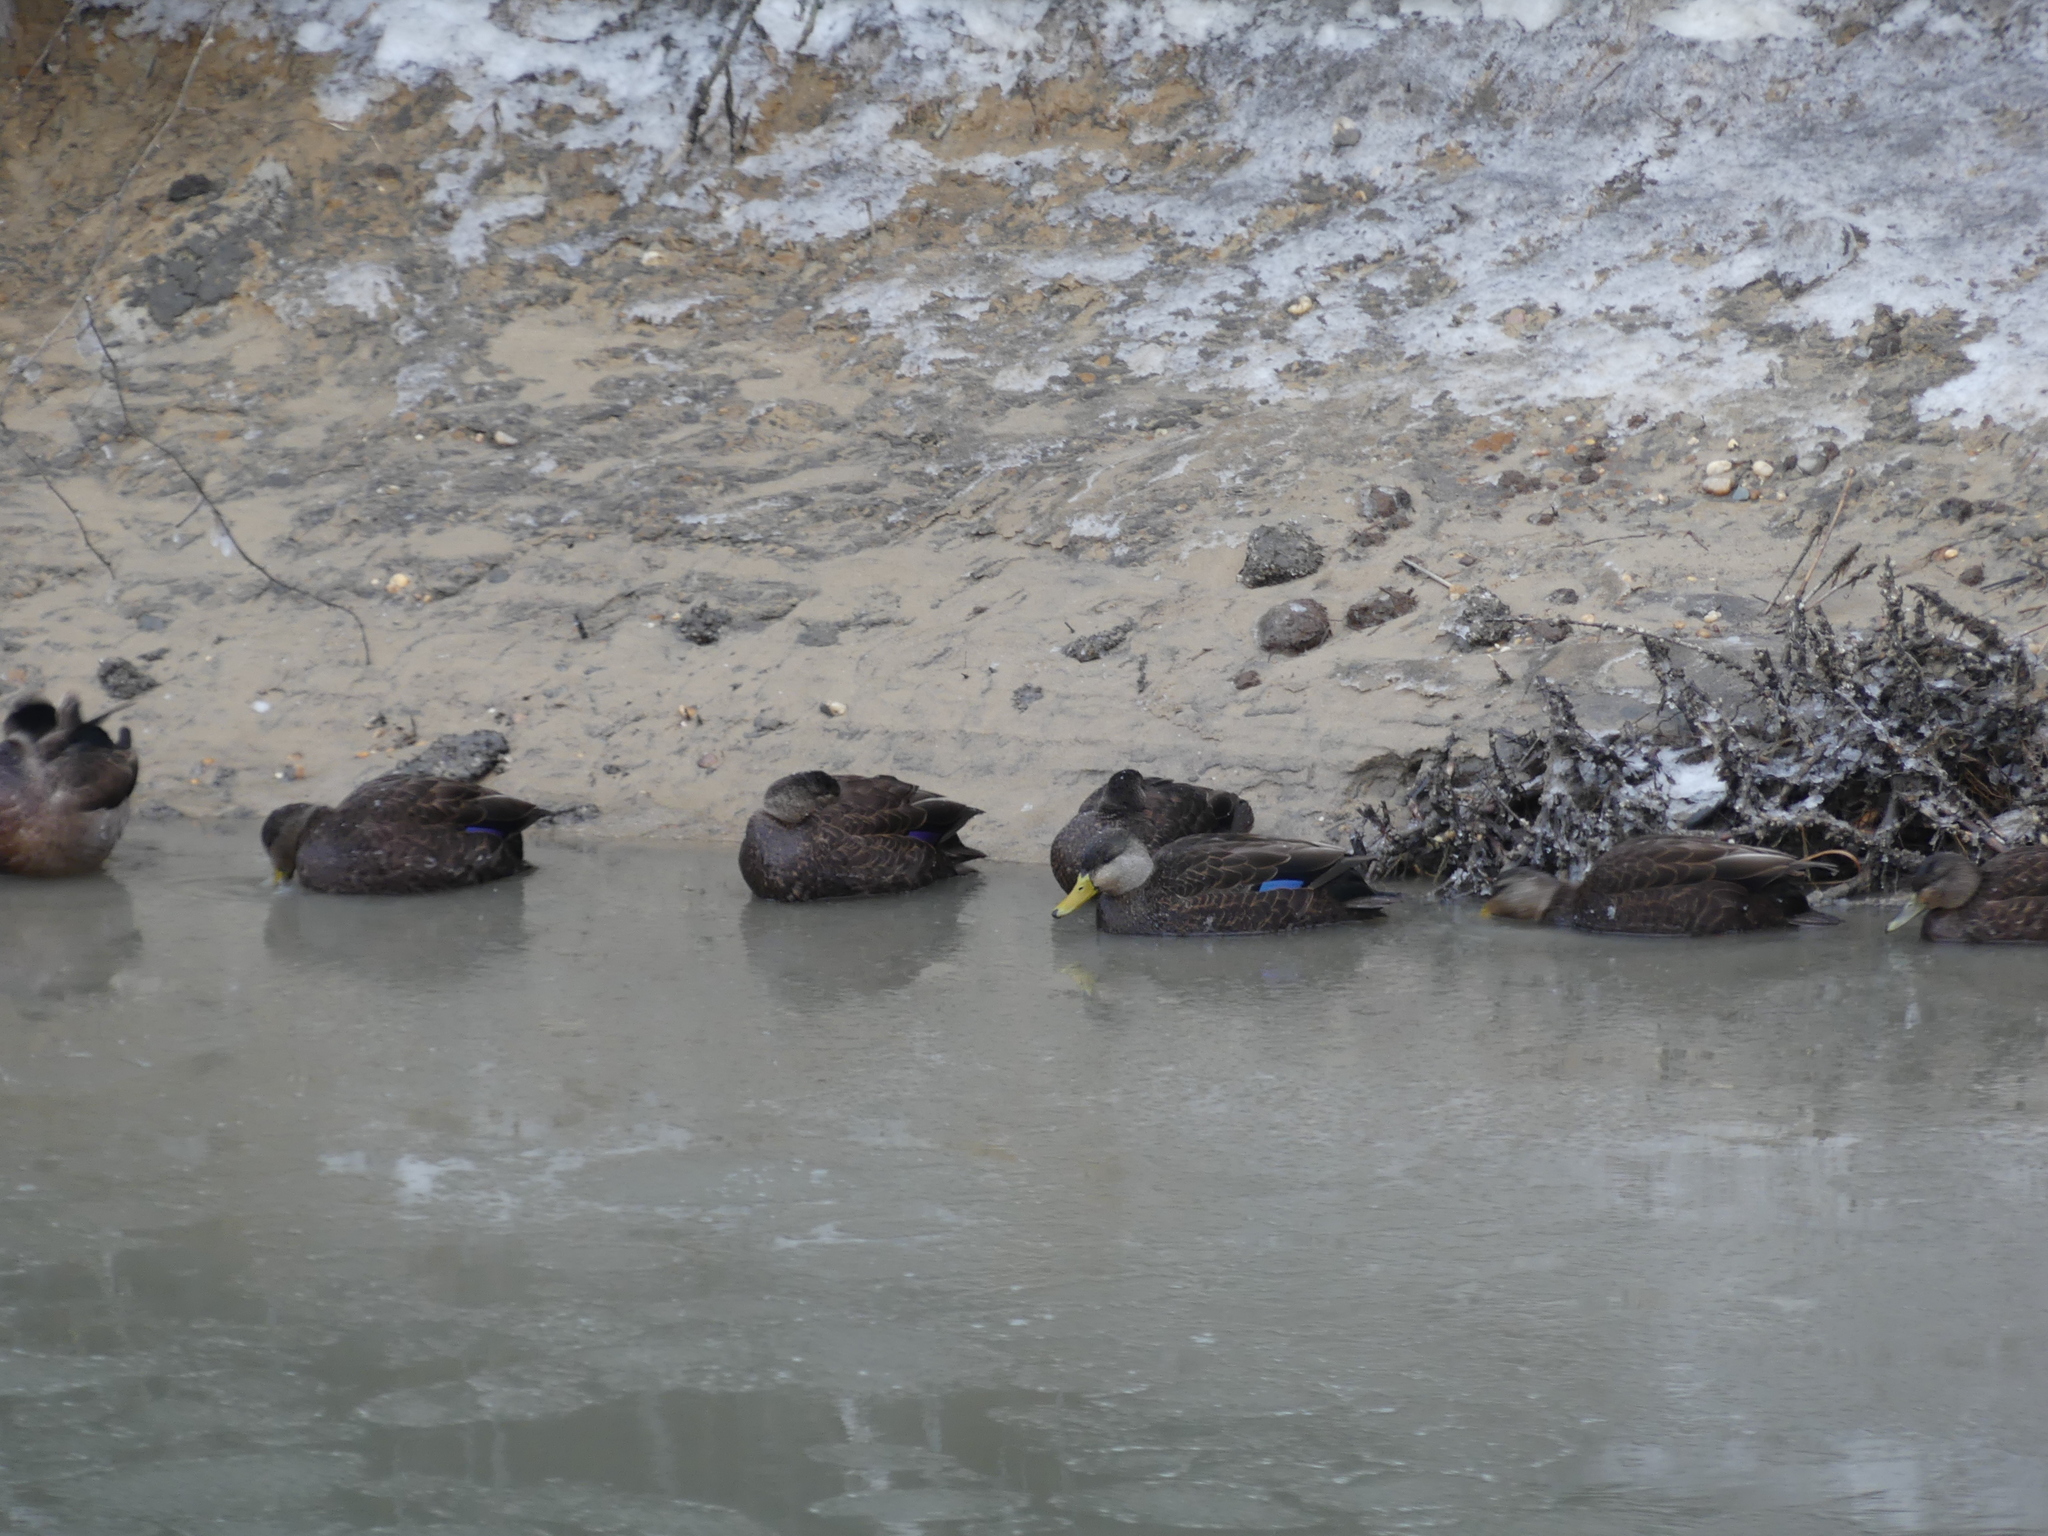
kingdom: Animalia
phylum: Chordata
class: Aves
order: Anseriformes
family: Anatidae
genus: Anas
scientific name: Anas rubripes
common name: American black duck
